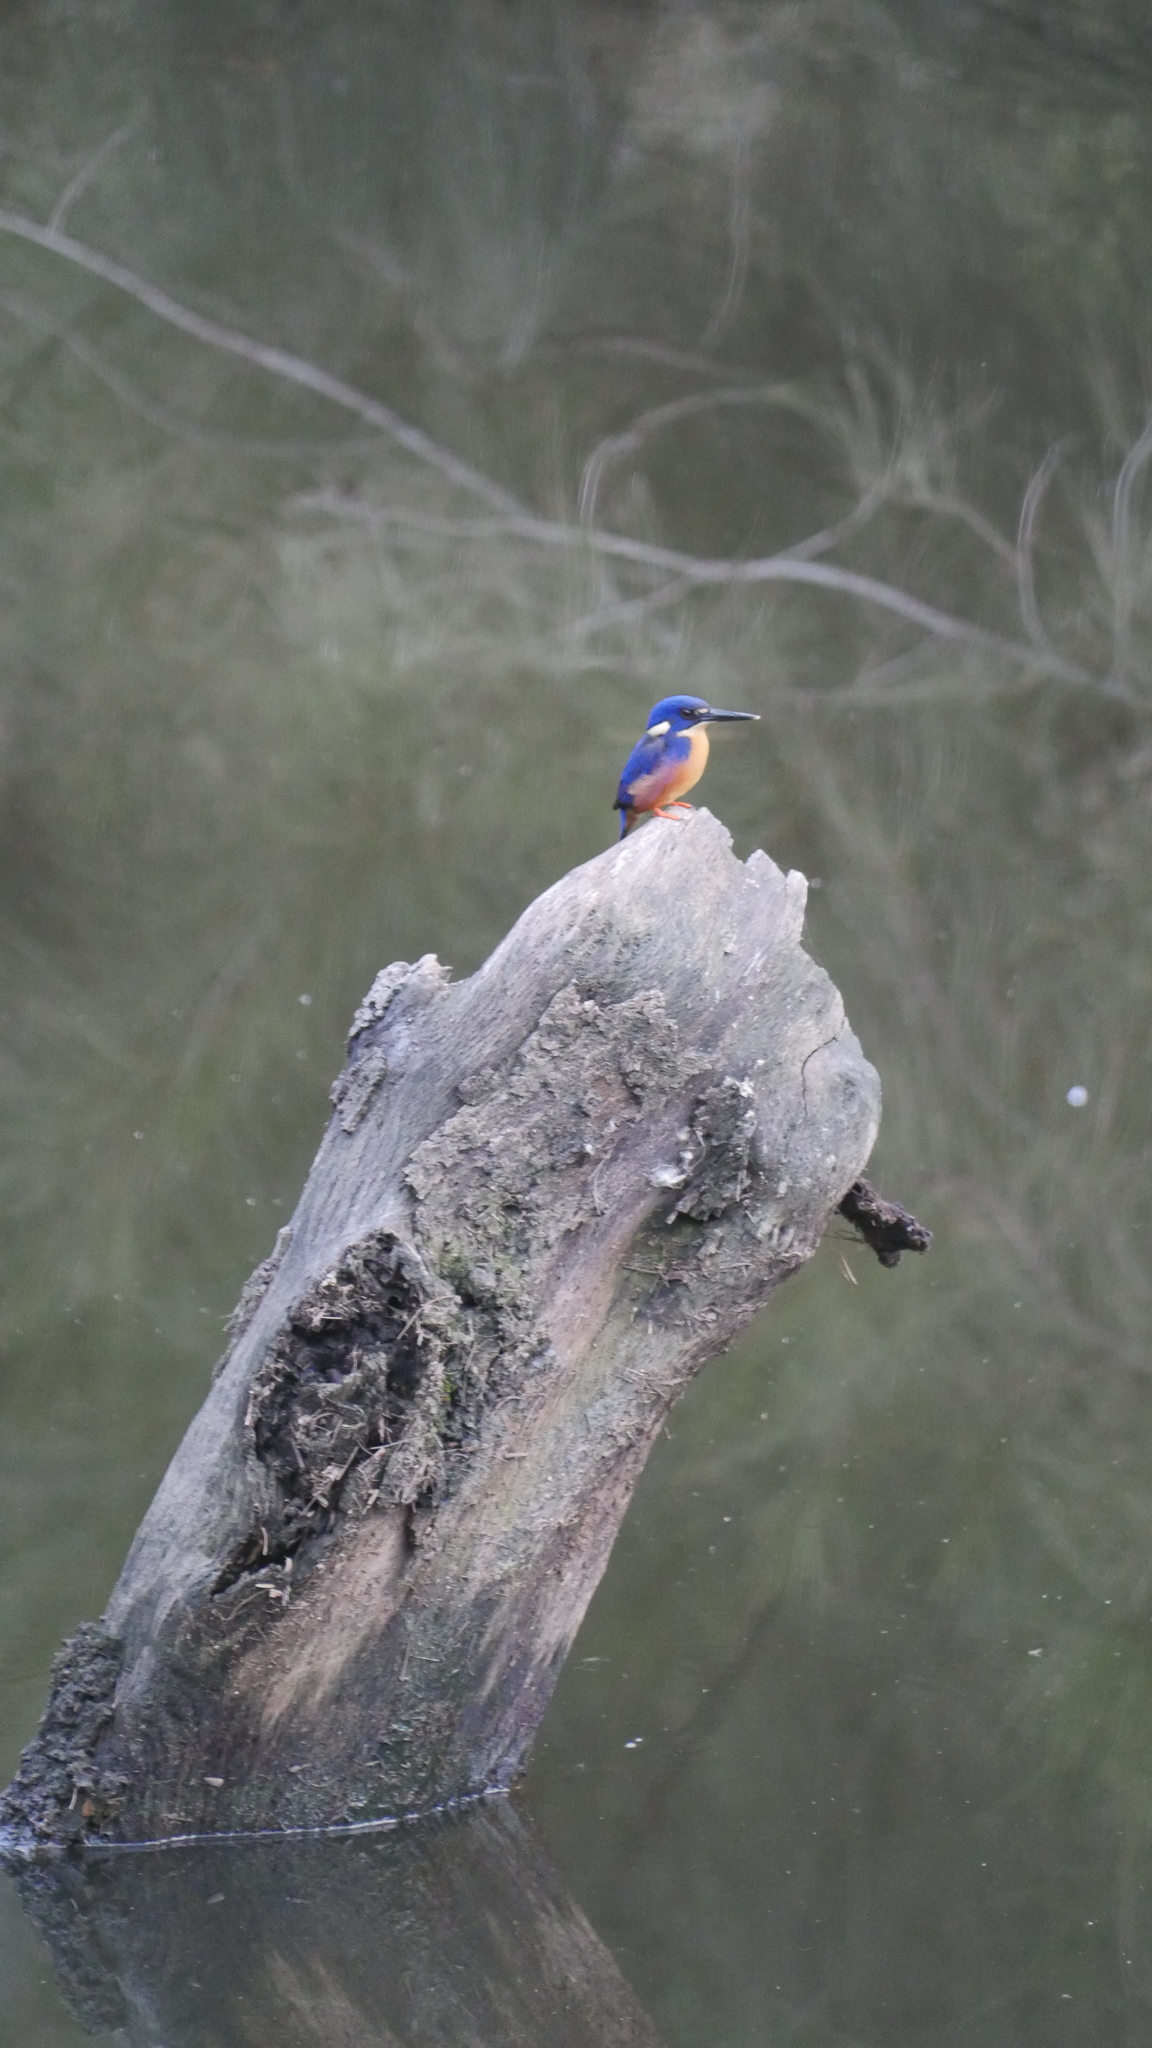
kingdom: Animalia
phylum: Chordata
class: Aves
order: Coraciiformes
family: Alcedinidae
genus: Ceyx
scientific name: Ceyx azureus
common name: Azure kingfisher
